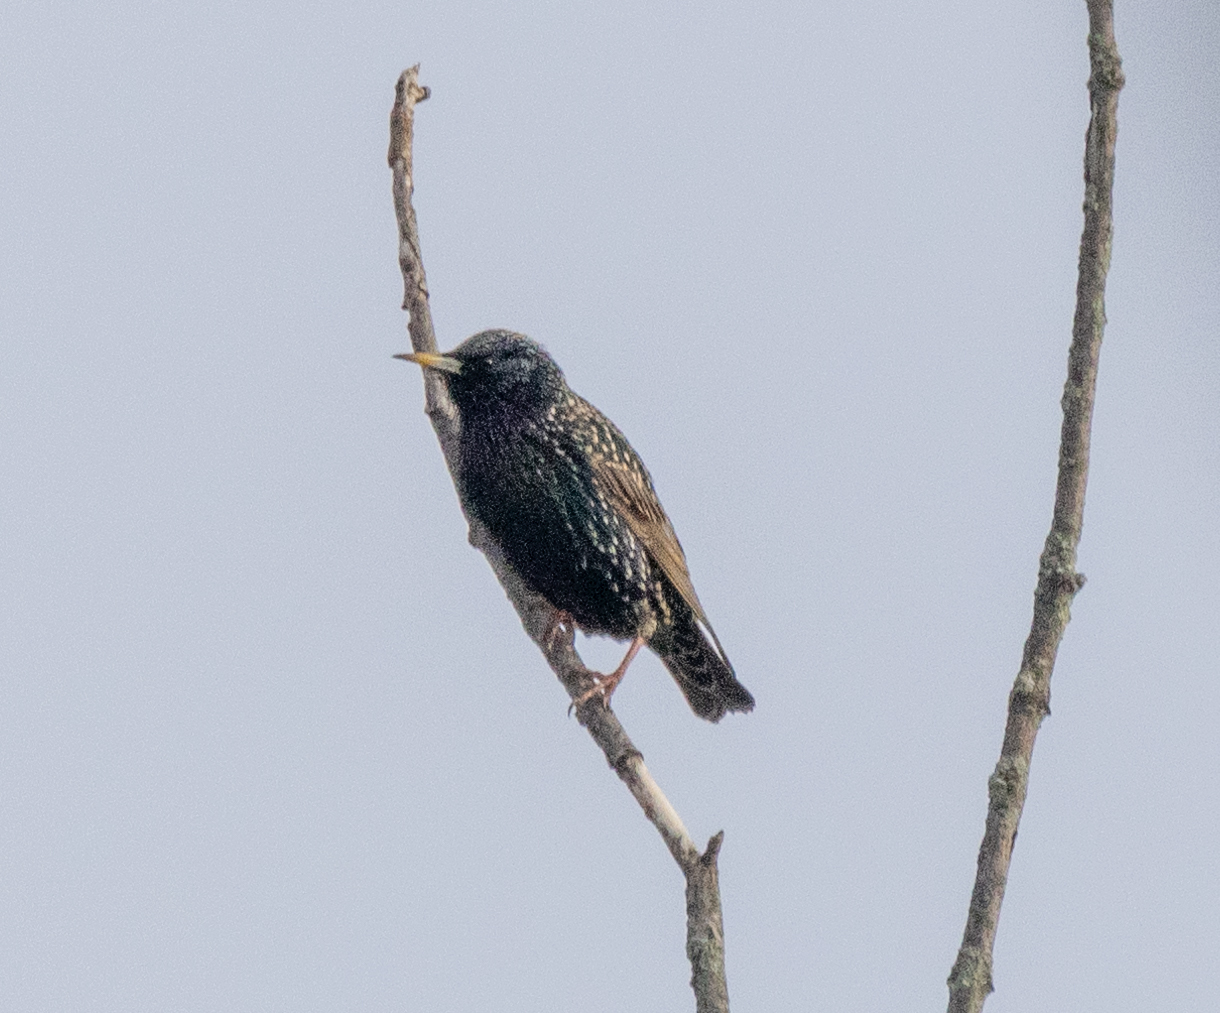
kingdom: Animalia
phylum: Chordata
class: Aves
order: Passeriformes
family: Sturnidae
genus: Sturnus
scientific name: Sturnus vulgaris
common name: Common starling
